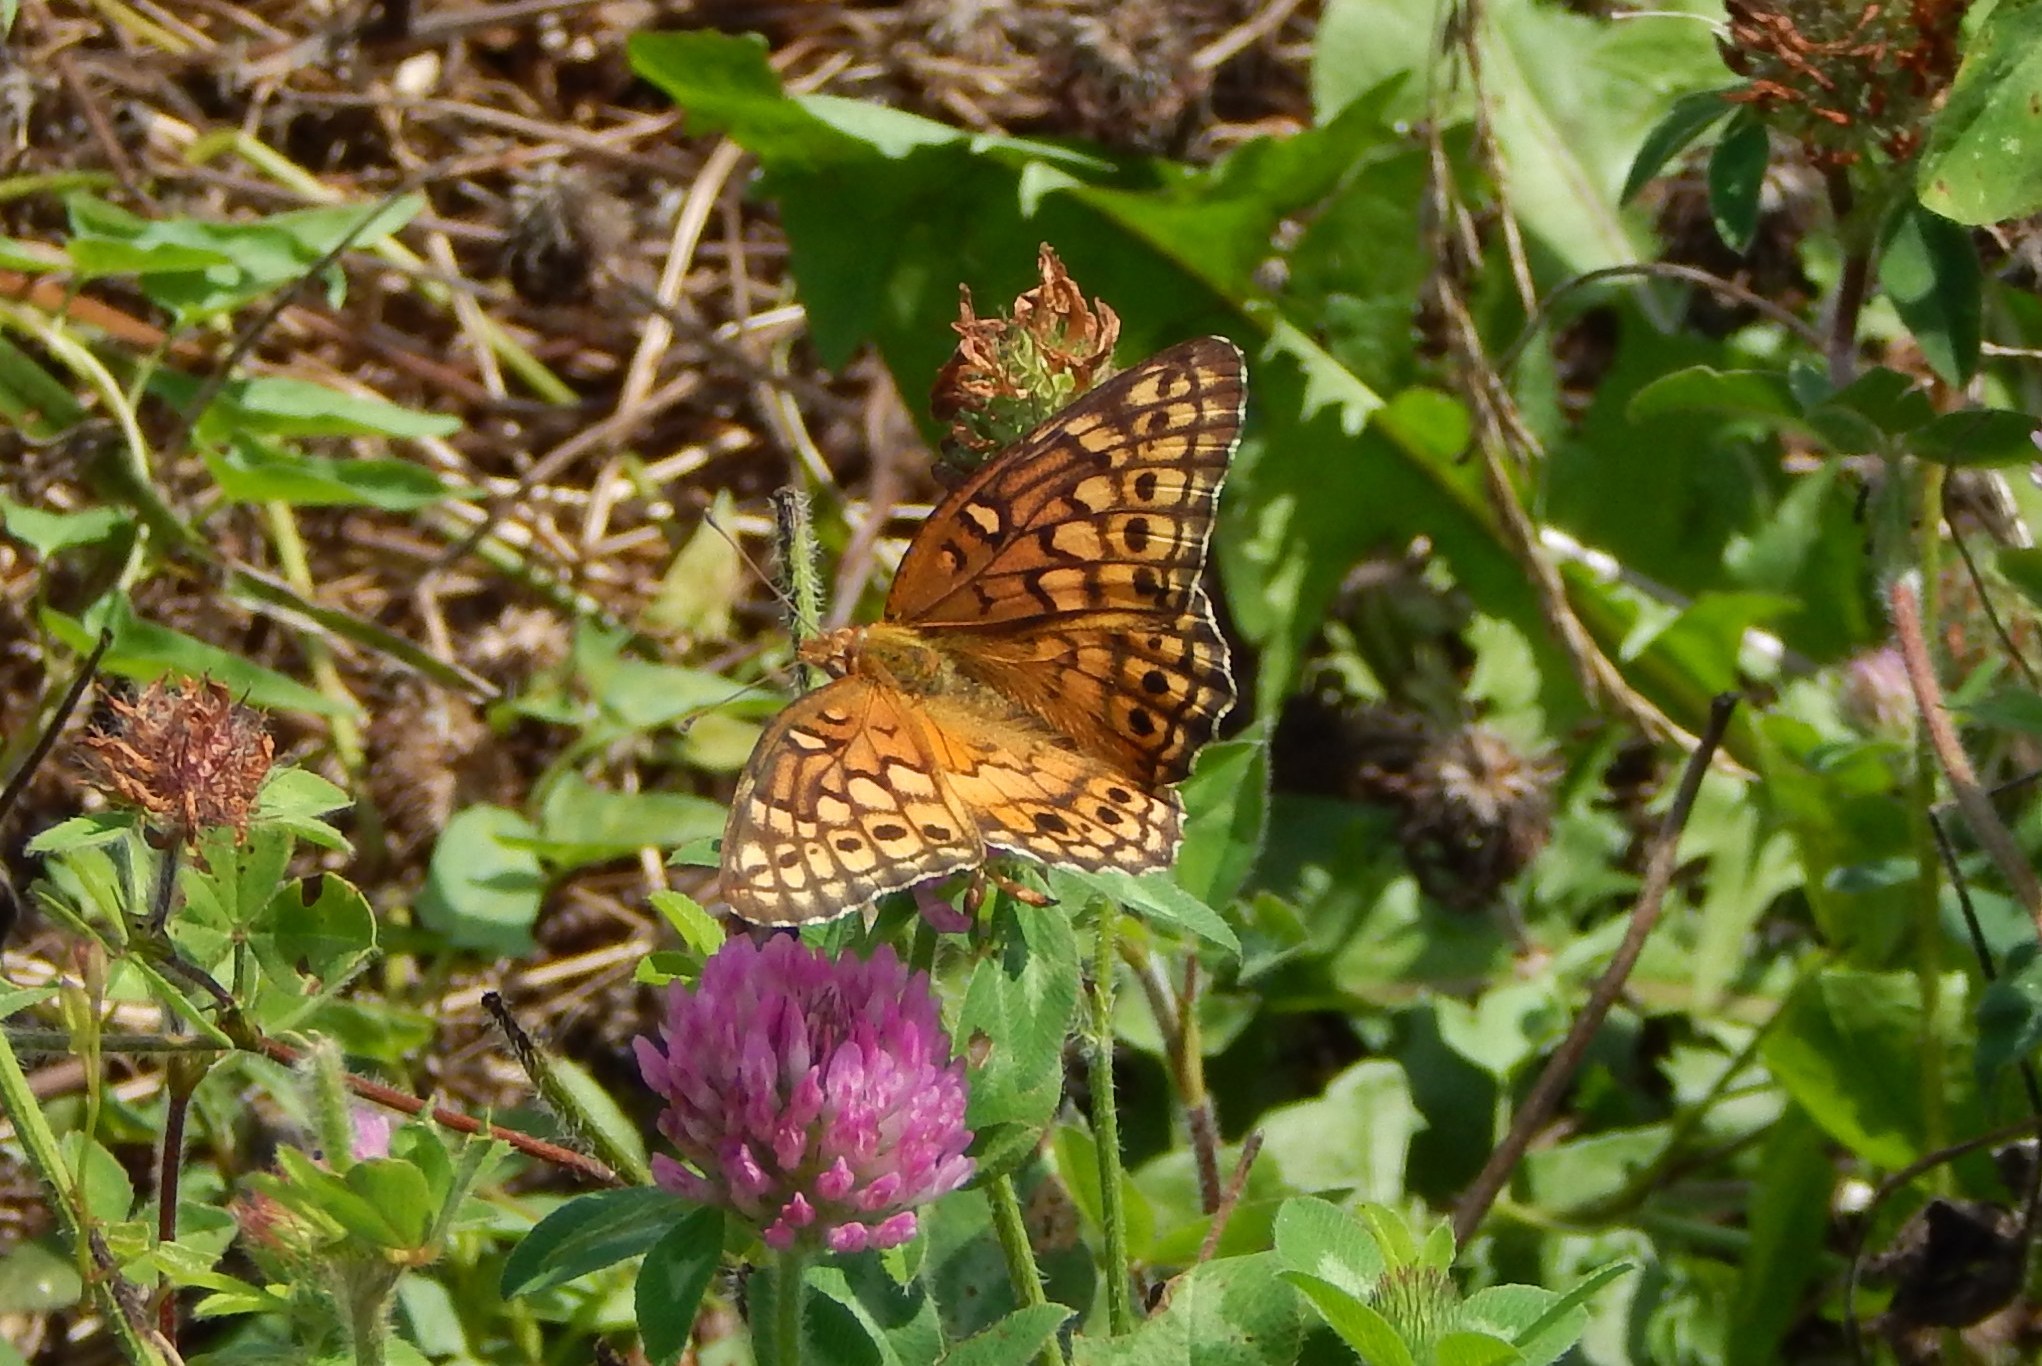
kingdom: Animalia
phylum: Arthropoda
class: Insecta
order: Lepidoptera
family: Nymphalidae
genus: Euptoieta
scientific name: Euptoieta claudia
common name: Variegated fritillary
